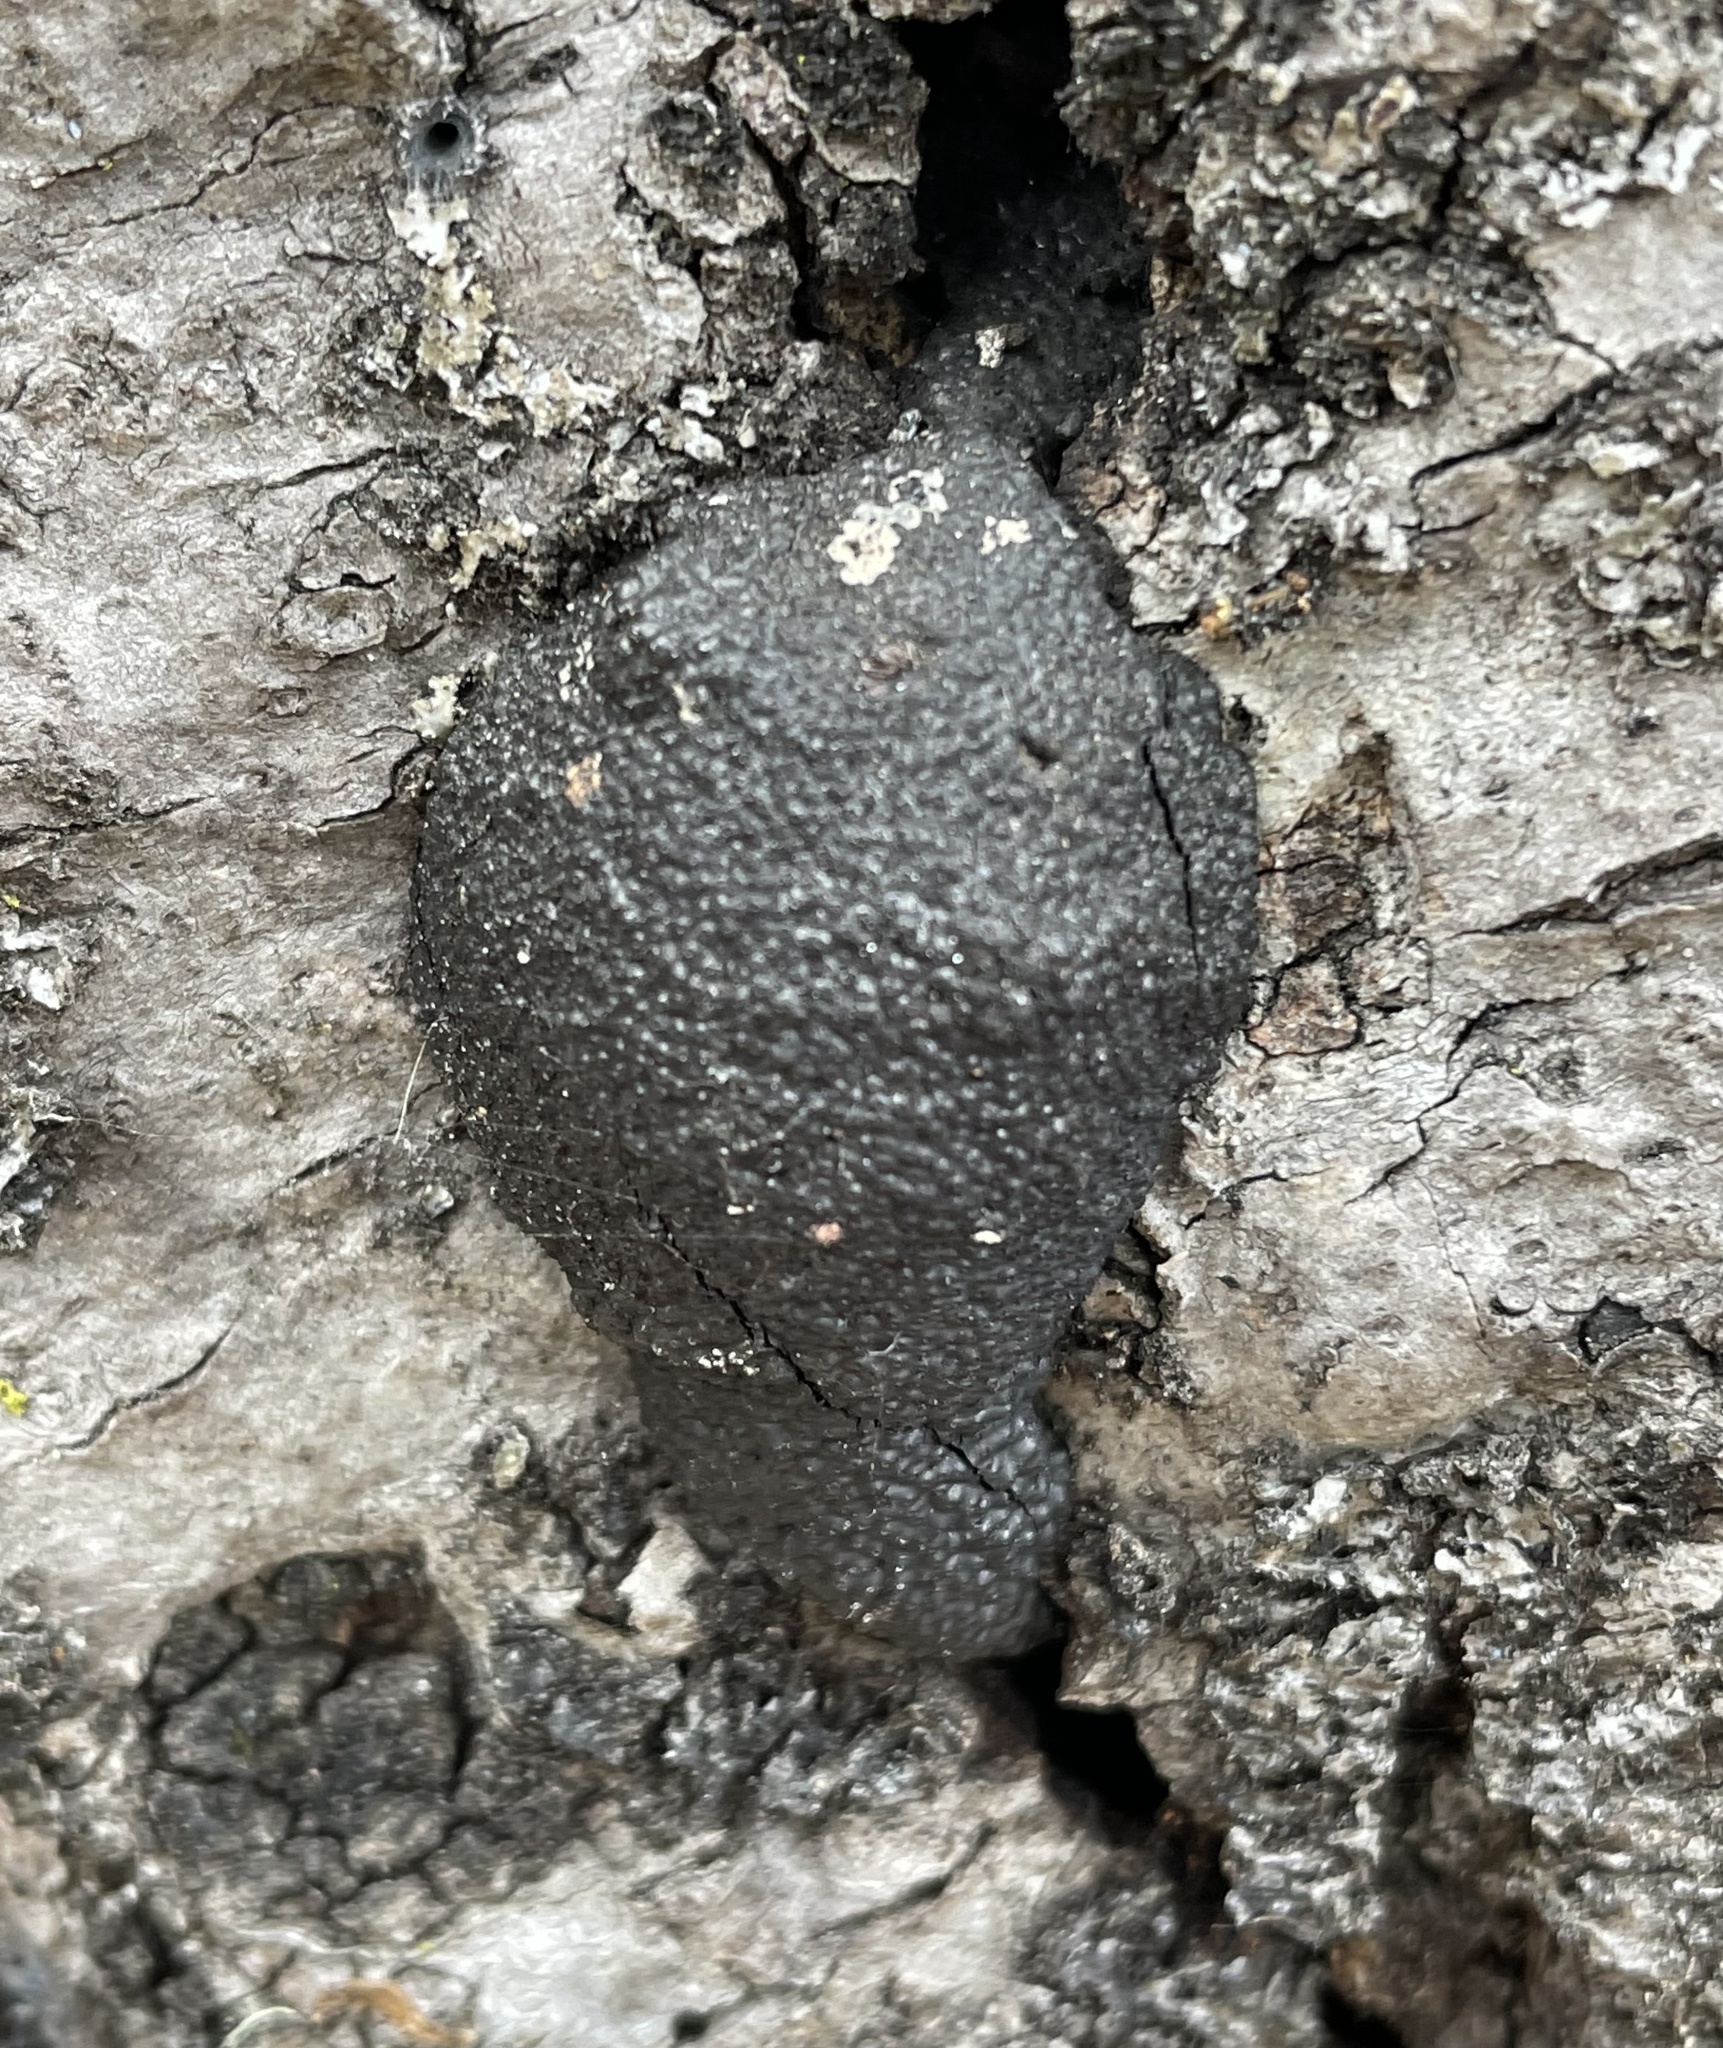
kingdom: Fungi
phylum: Ascomycota
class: Sordariomycetes
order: Xylariales
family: Hypoxylaceae
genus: Annulohypoxylon
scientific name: Annulohypoxylon thouarsianum
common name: Cramp balls
